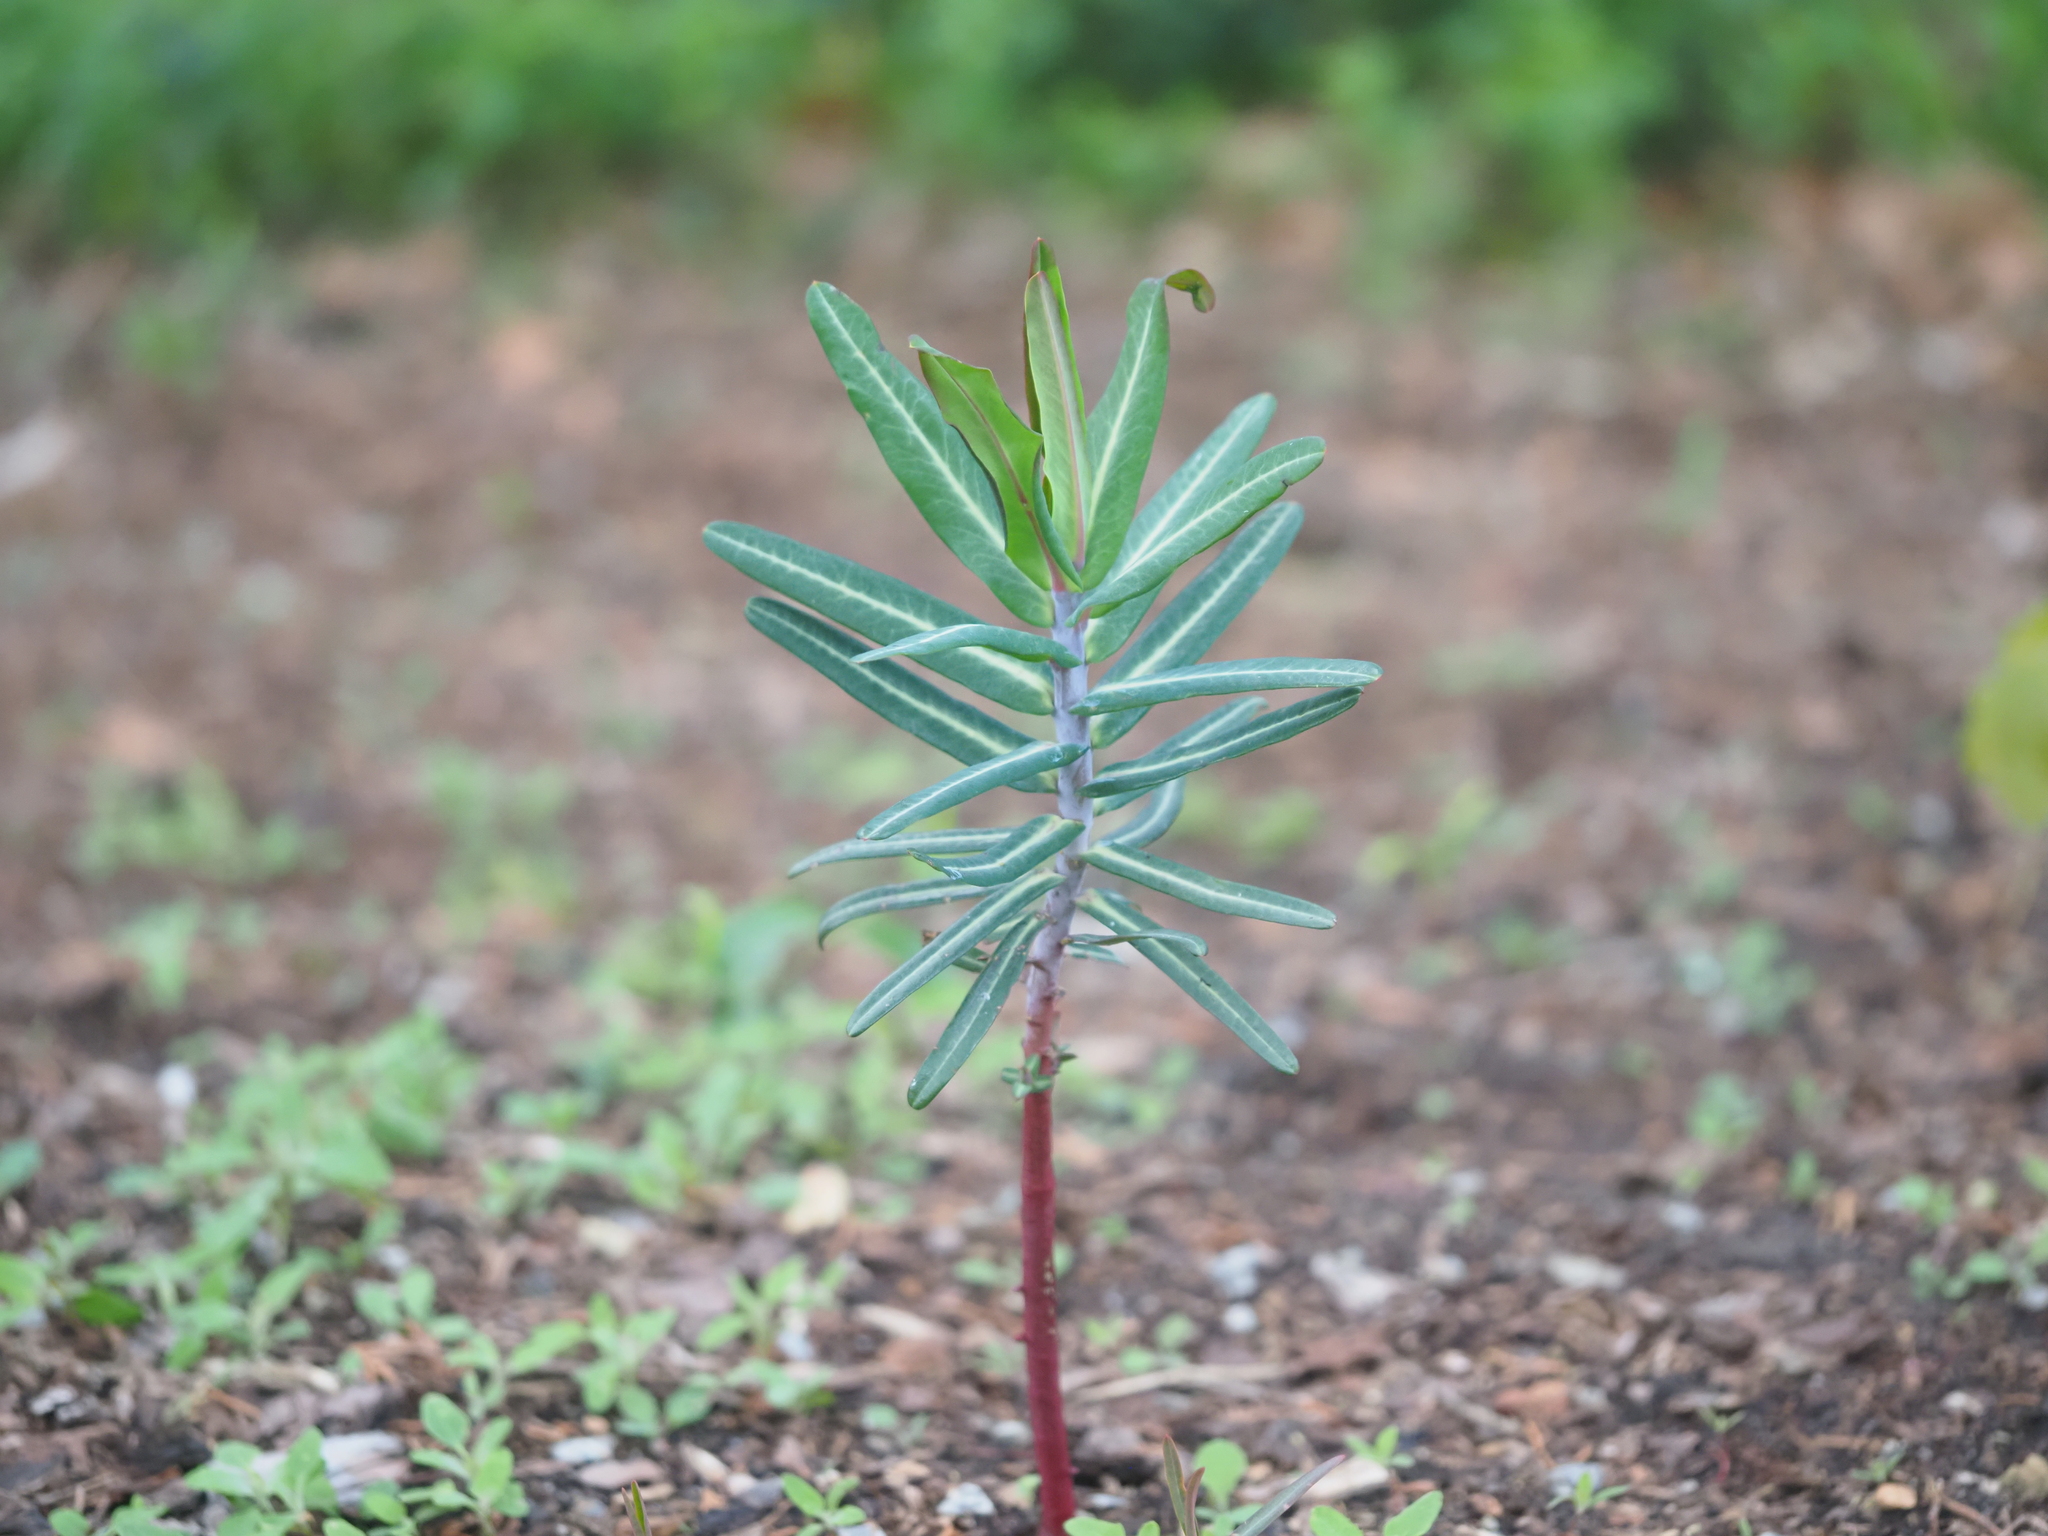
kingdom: Plantae
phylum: Tracheophyta
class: Magnoliopsida
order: Malpighiales
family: Euphorbiaceae
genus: Euphorbia
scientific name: Euphorbia lathyris
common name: Caper spurge
